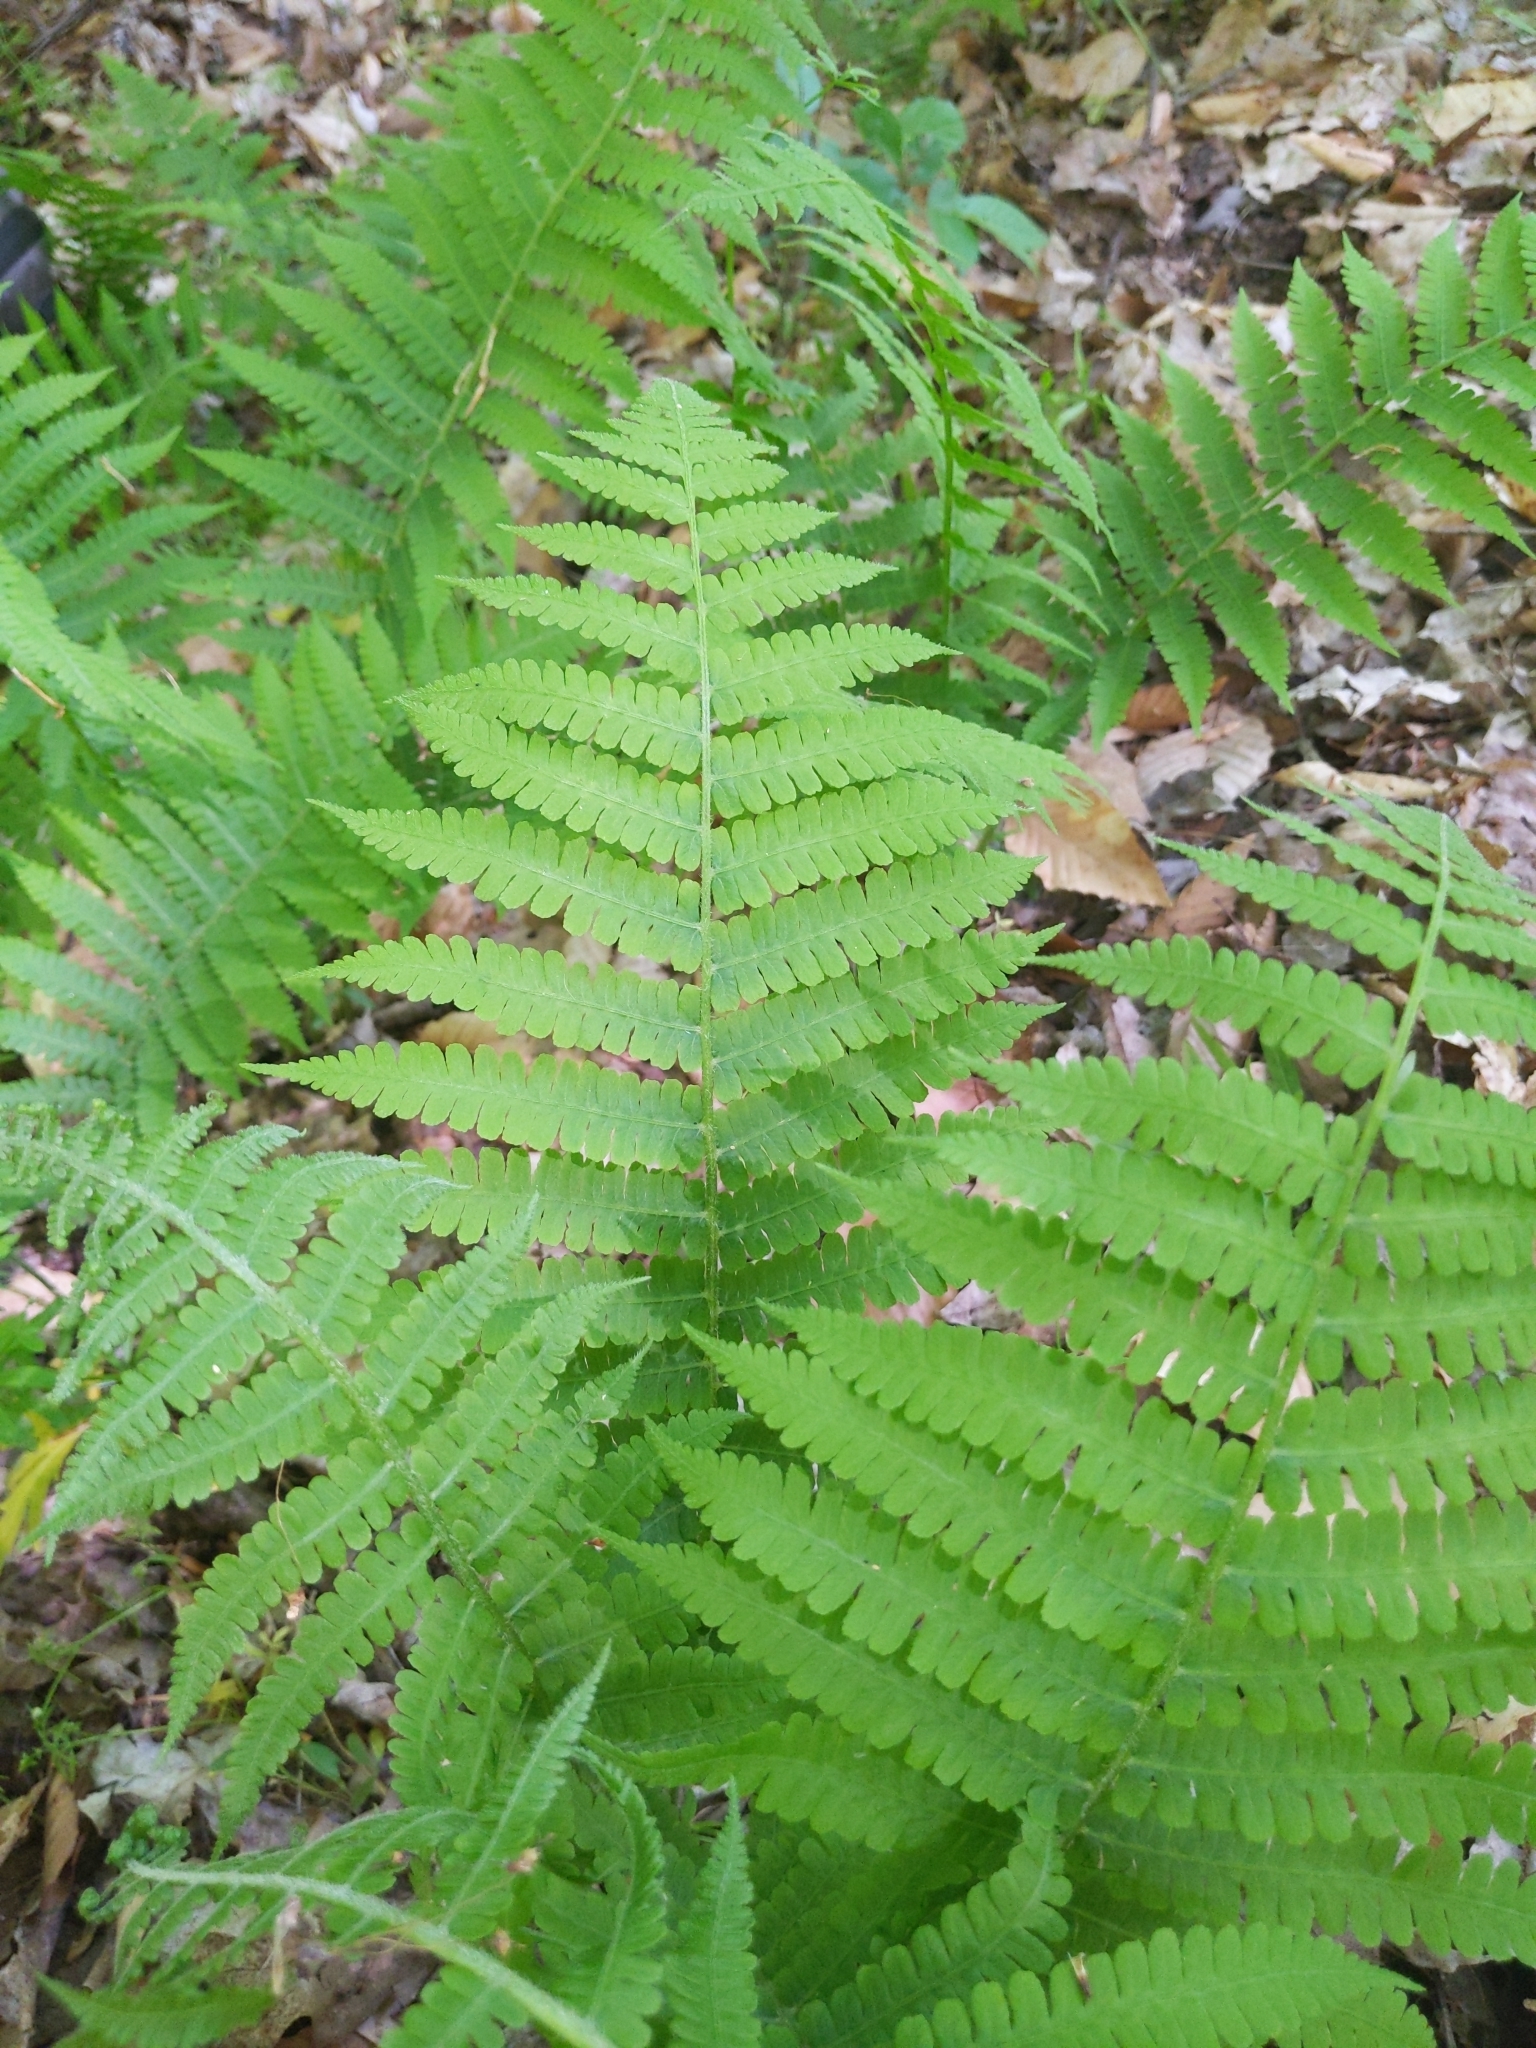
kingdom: Plantae
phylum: Tracheophyta
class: Polypodiopsida
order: Polypodiales
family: Athyriaceae
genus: Deparia
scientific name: Deparia acrostichoides
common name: Silver false spleenwort
